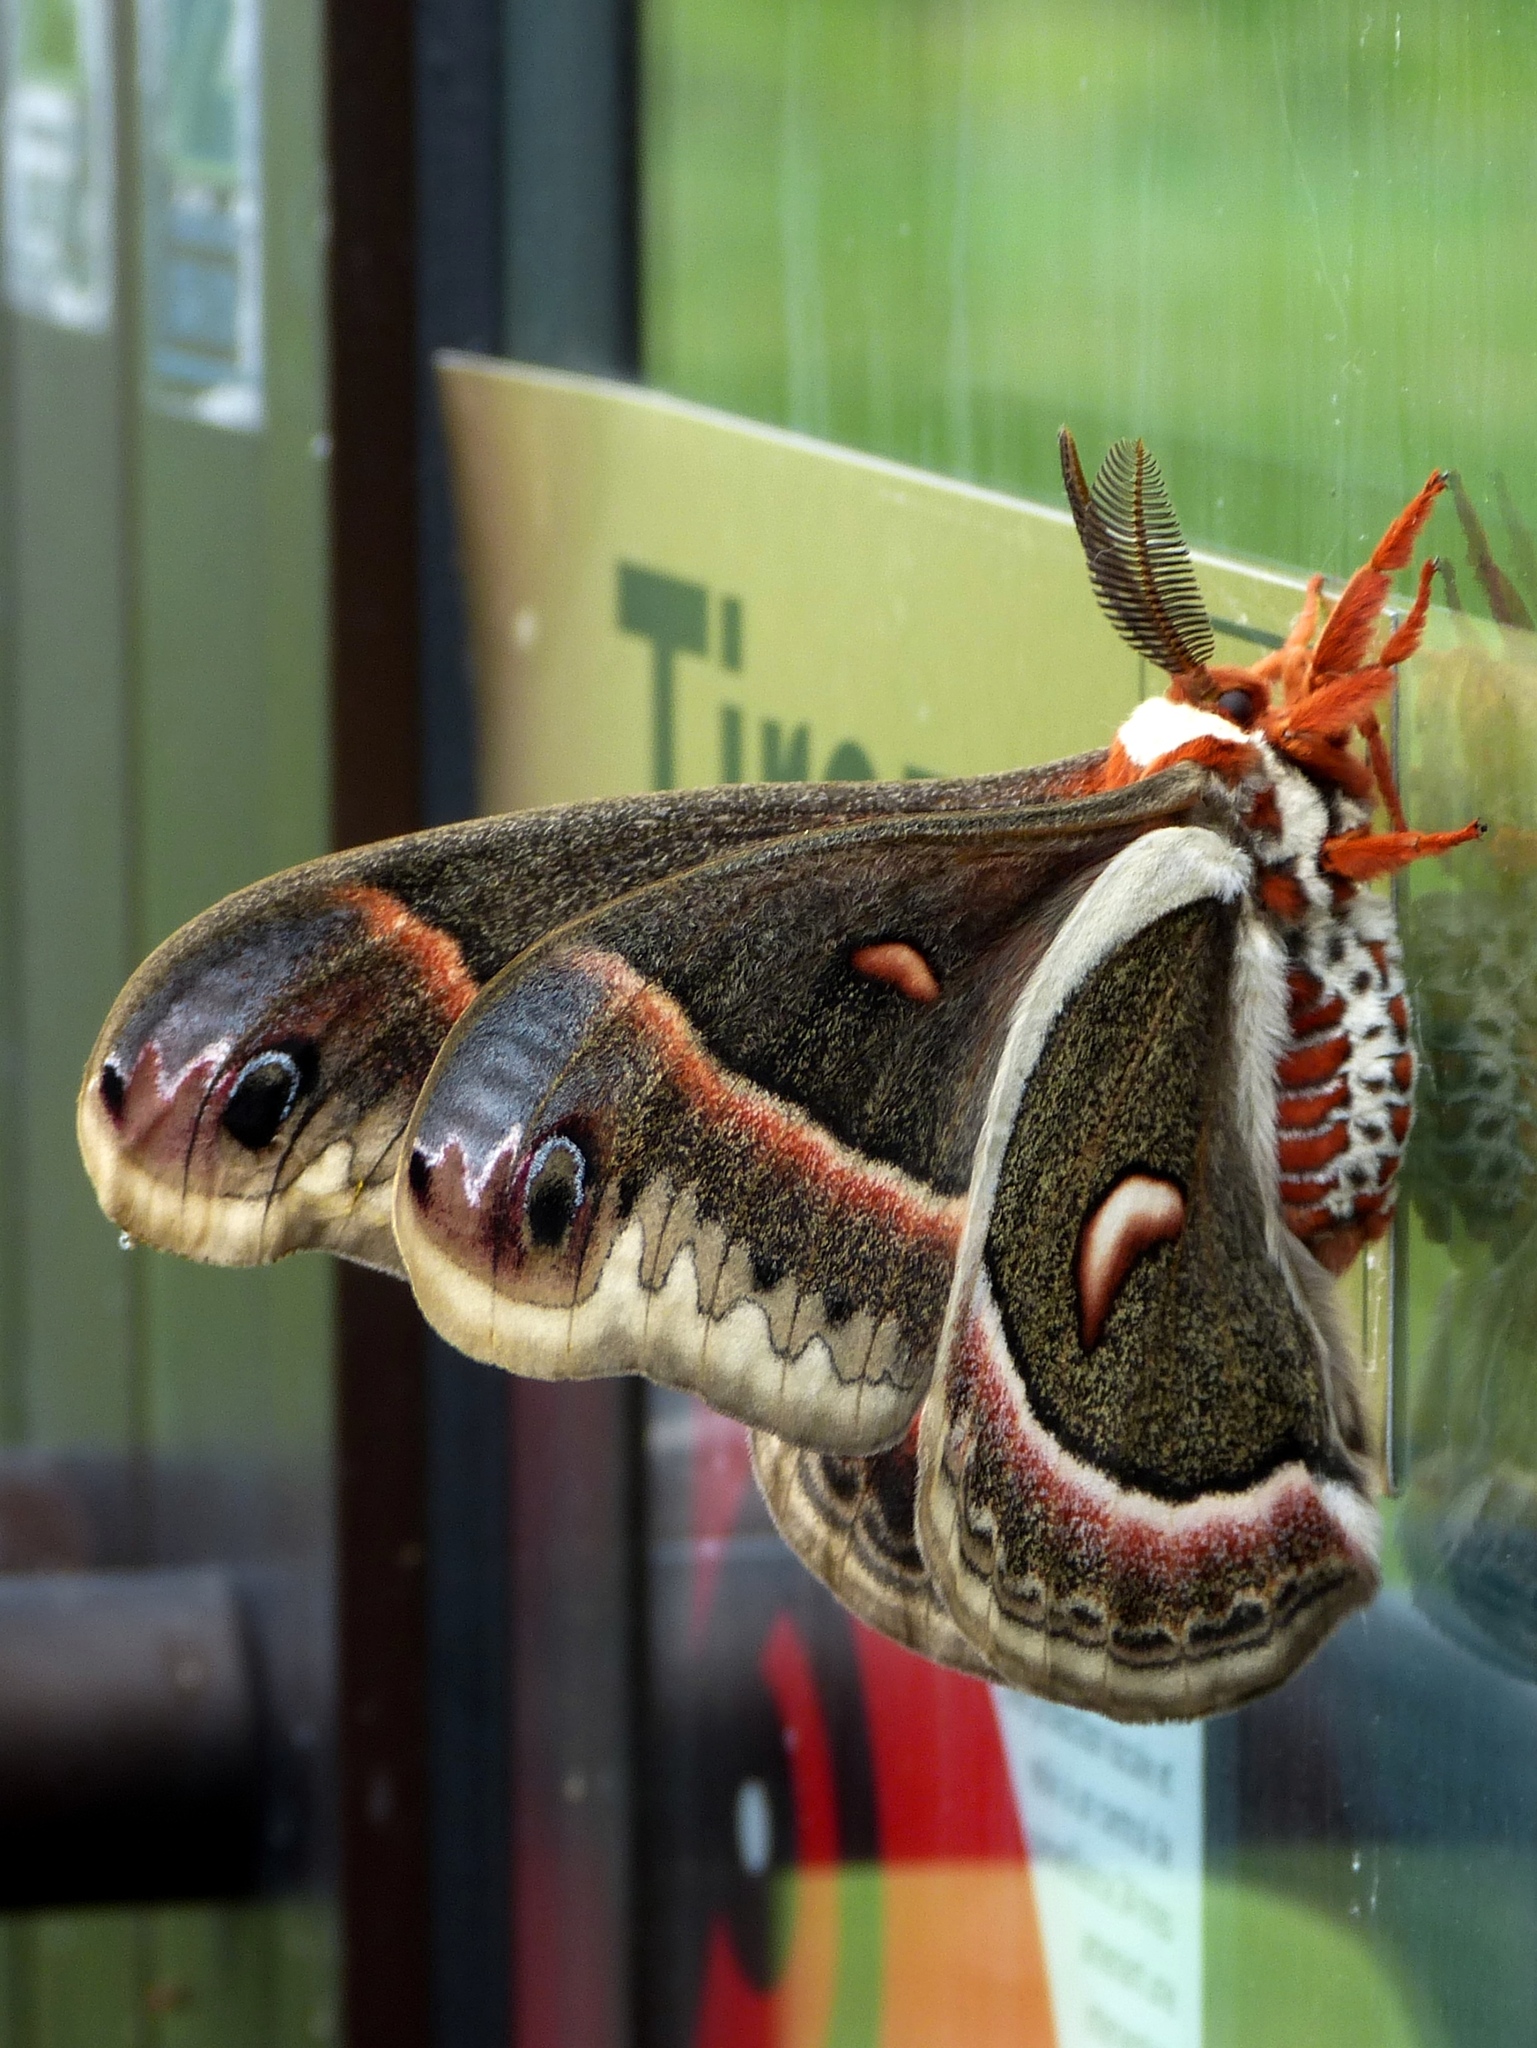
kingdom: Animalia
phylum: Arthropoda
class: Insecta
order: Lepidoptera
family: Saturniidae
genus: Hyalophora
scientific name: Hyalophora cecropia
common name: Cecropia silkmoth
